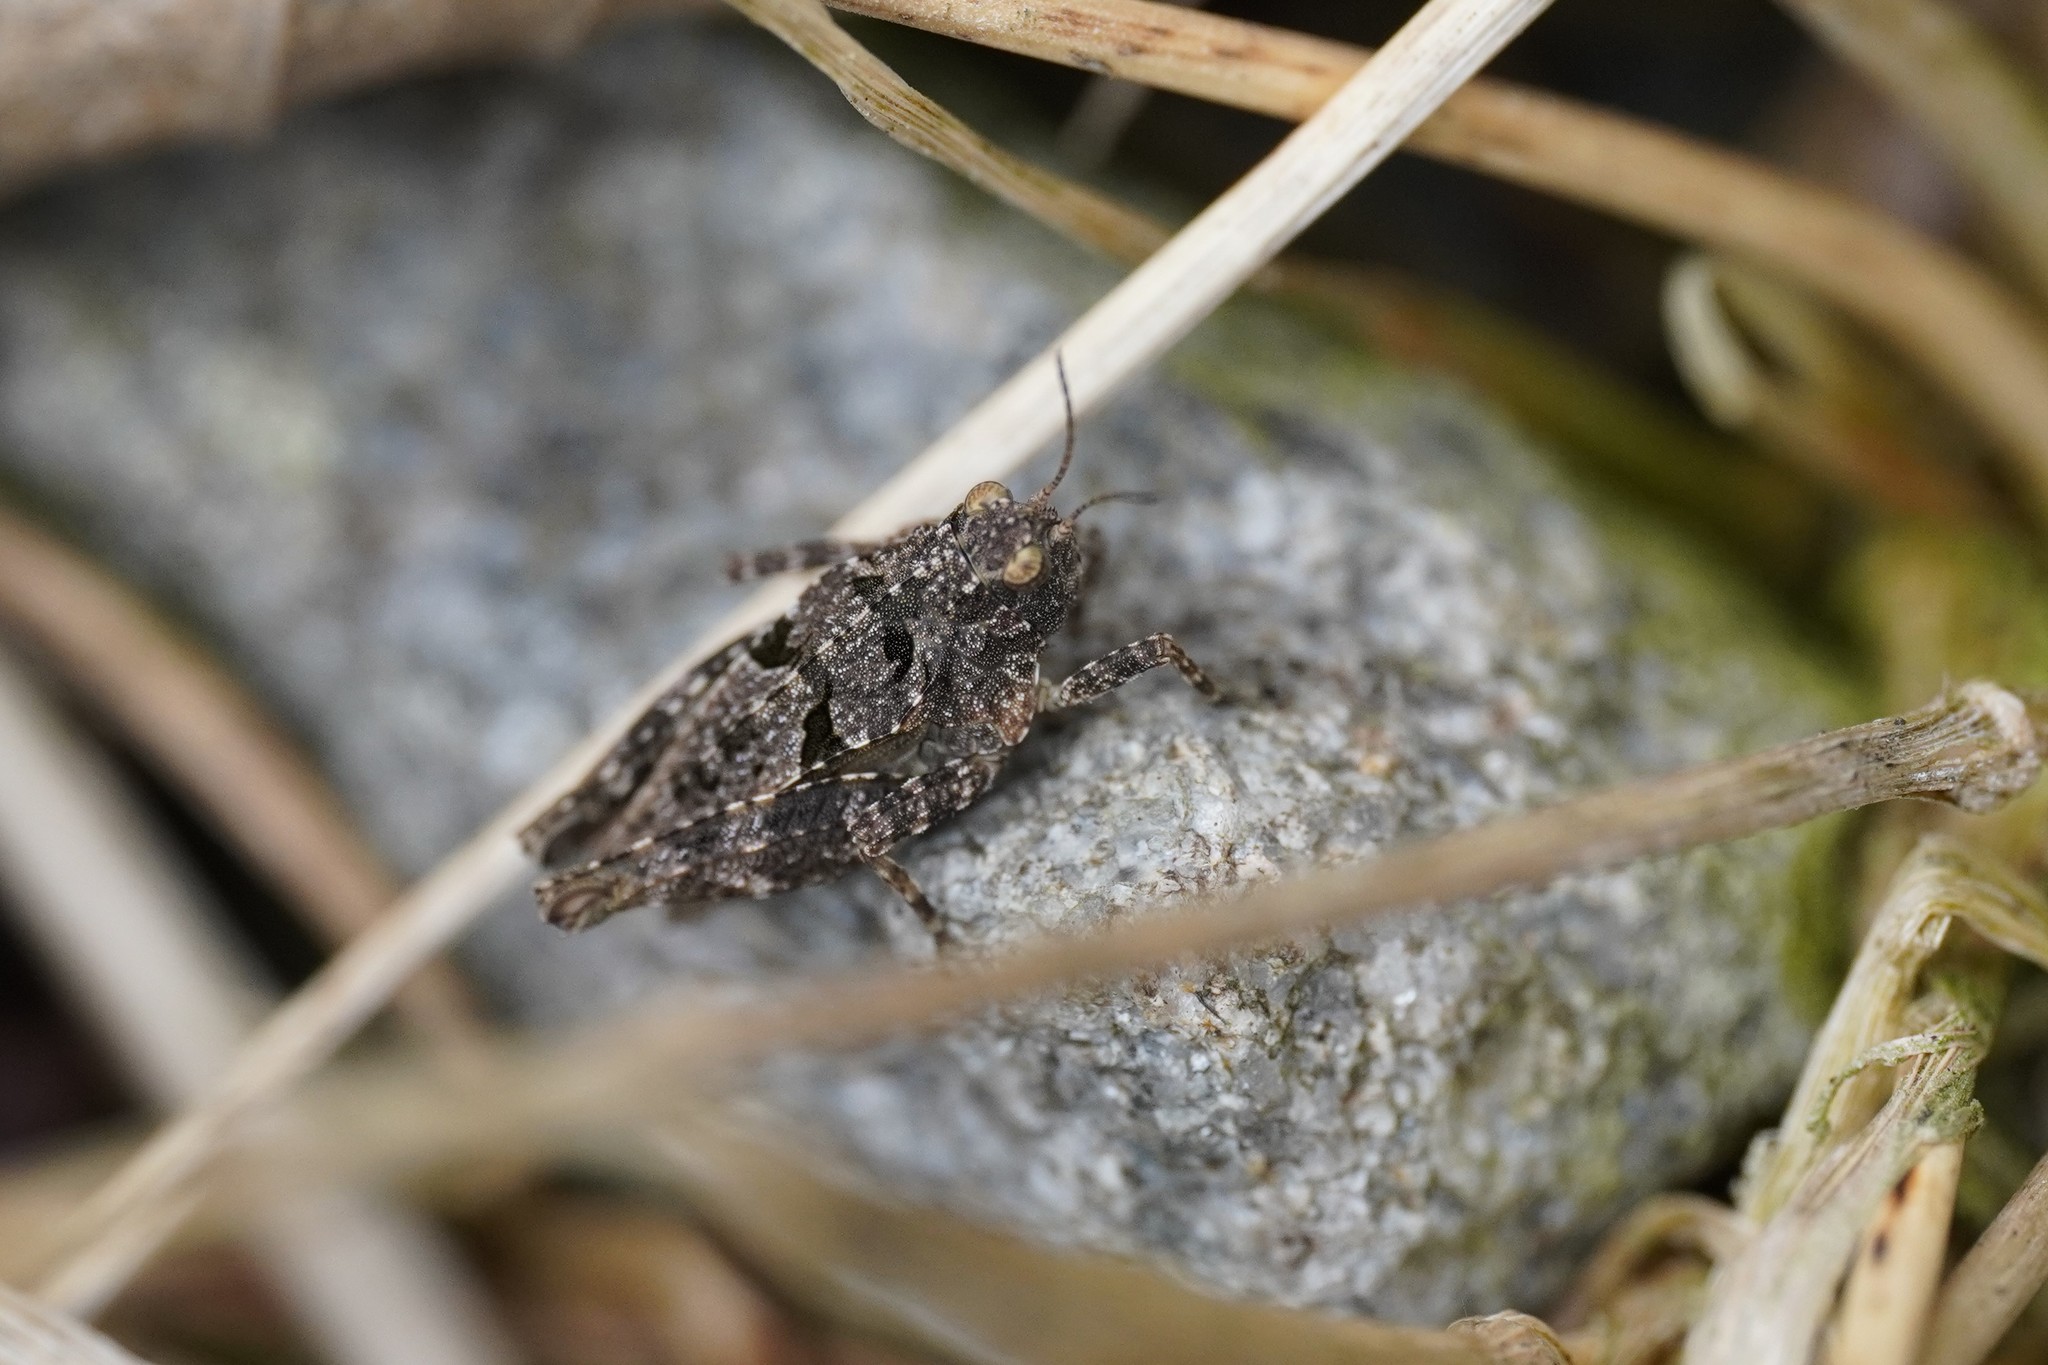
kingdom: Animalia
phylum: Arthropoda
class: Insecta
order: Orthoptera
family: Tetrigidae
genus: Tetrix
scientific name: Tetrix tenuicornis
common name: Long-horned groundhopper
